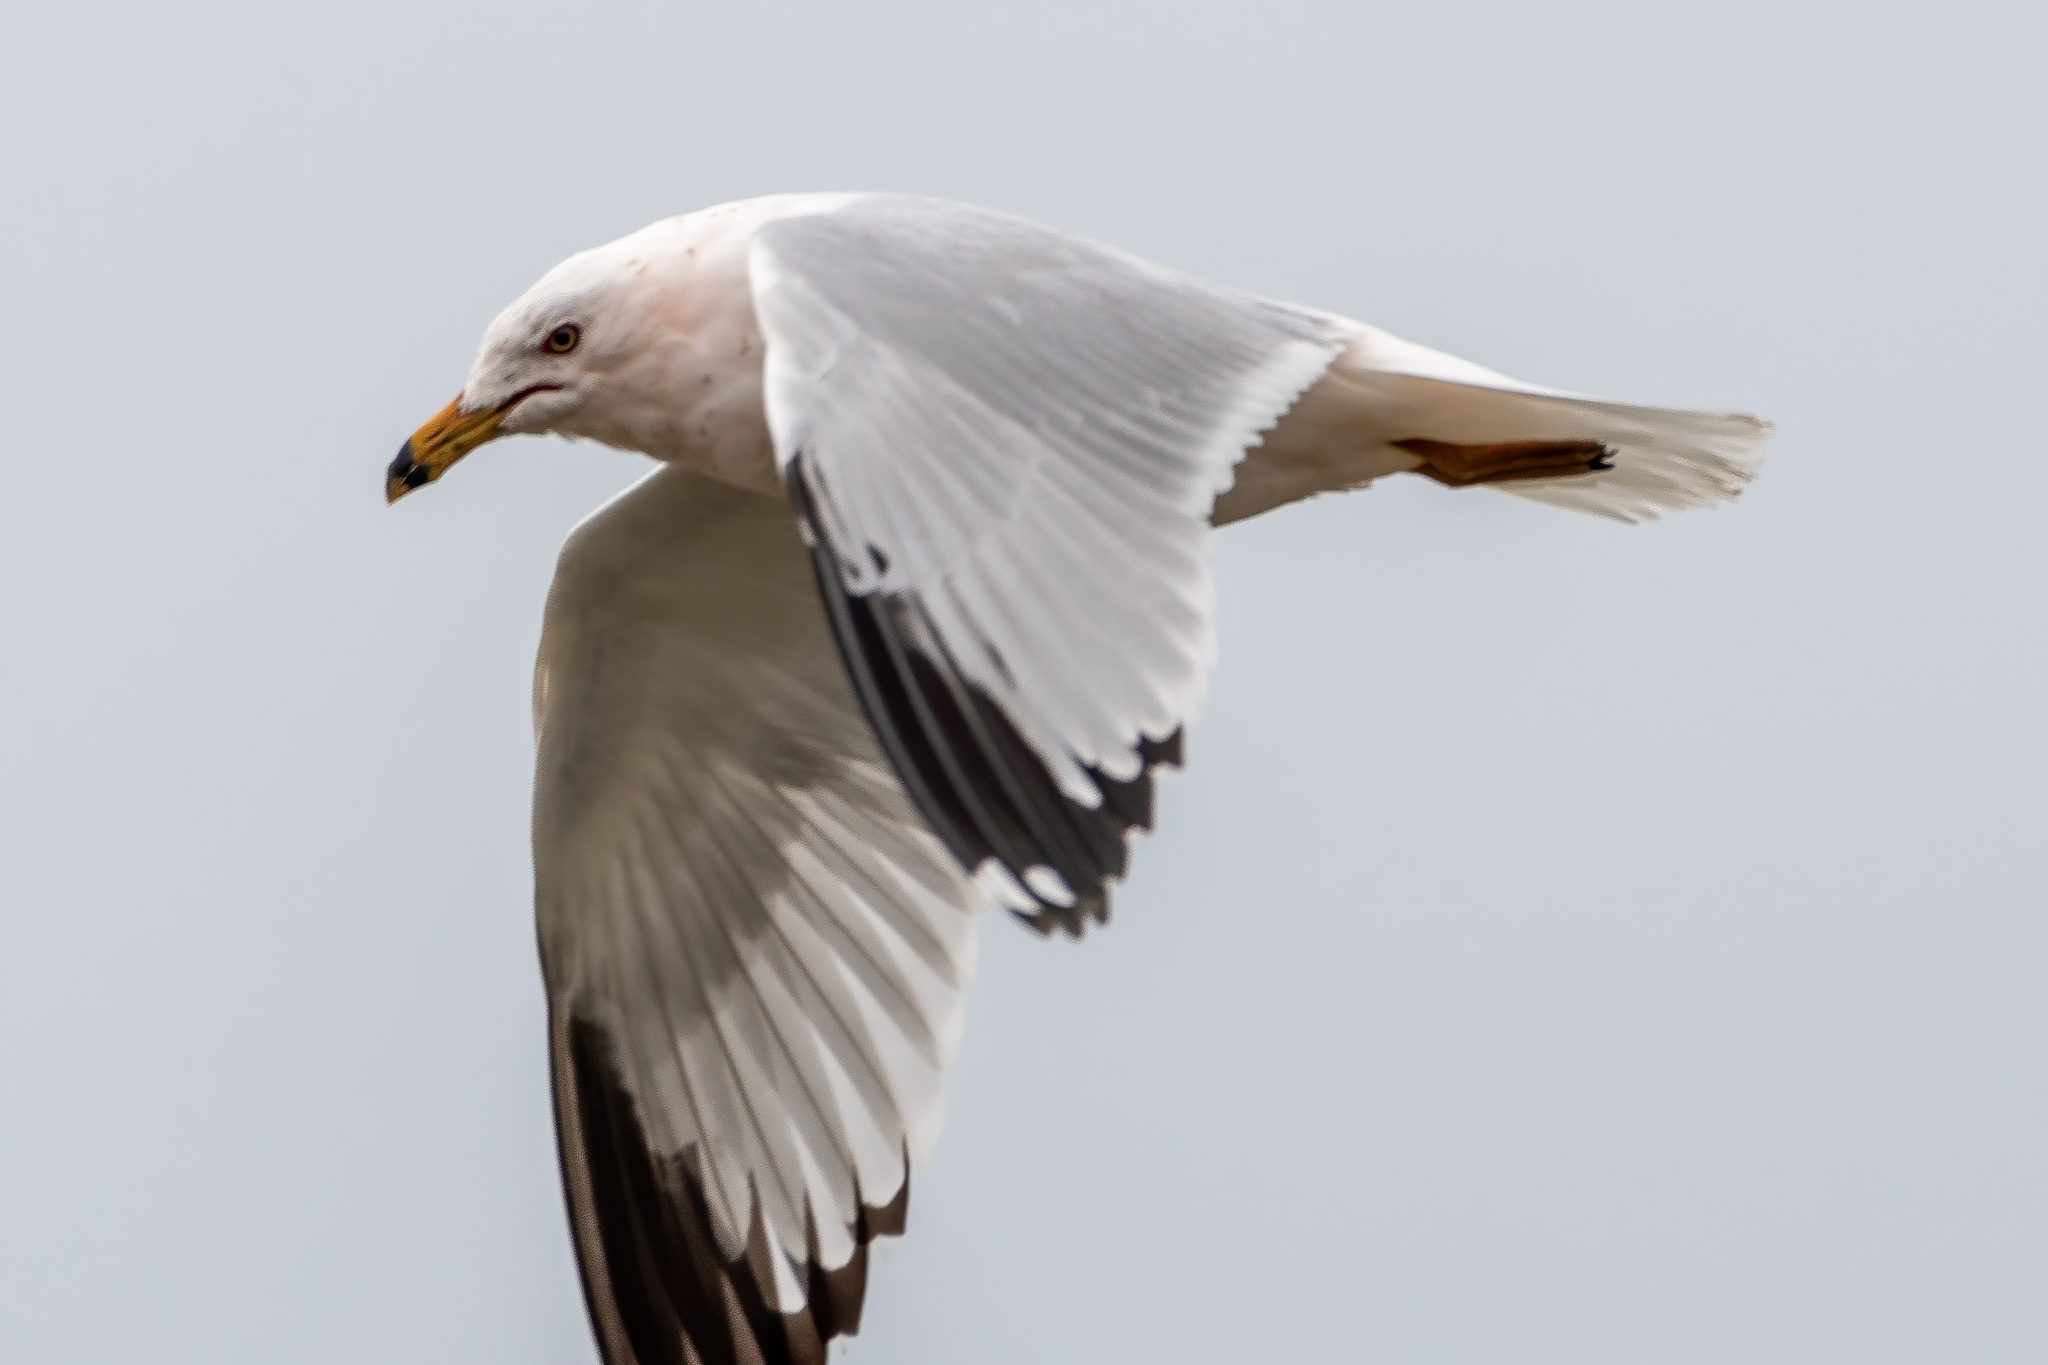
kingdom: Animalia
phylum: Chordata
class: Aves
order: Charadriiformes
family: Laridae
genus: Larus
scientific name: Larus delawarensis
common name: Ring-billed gull
